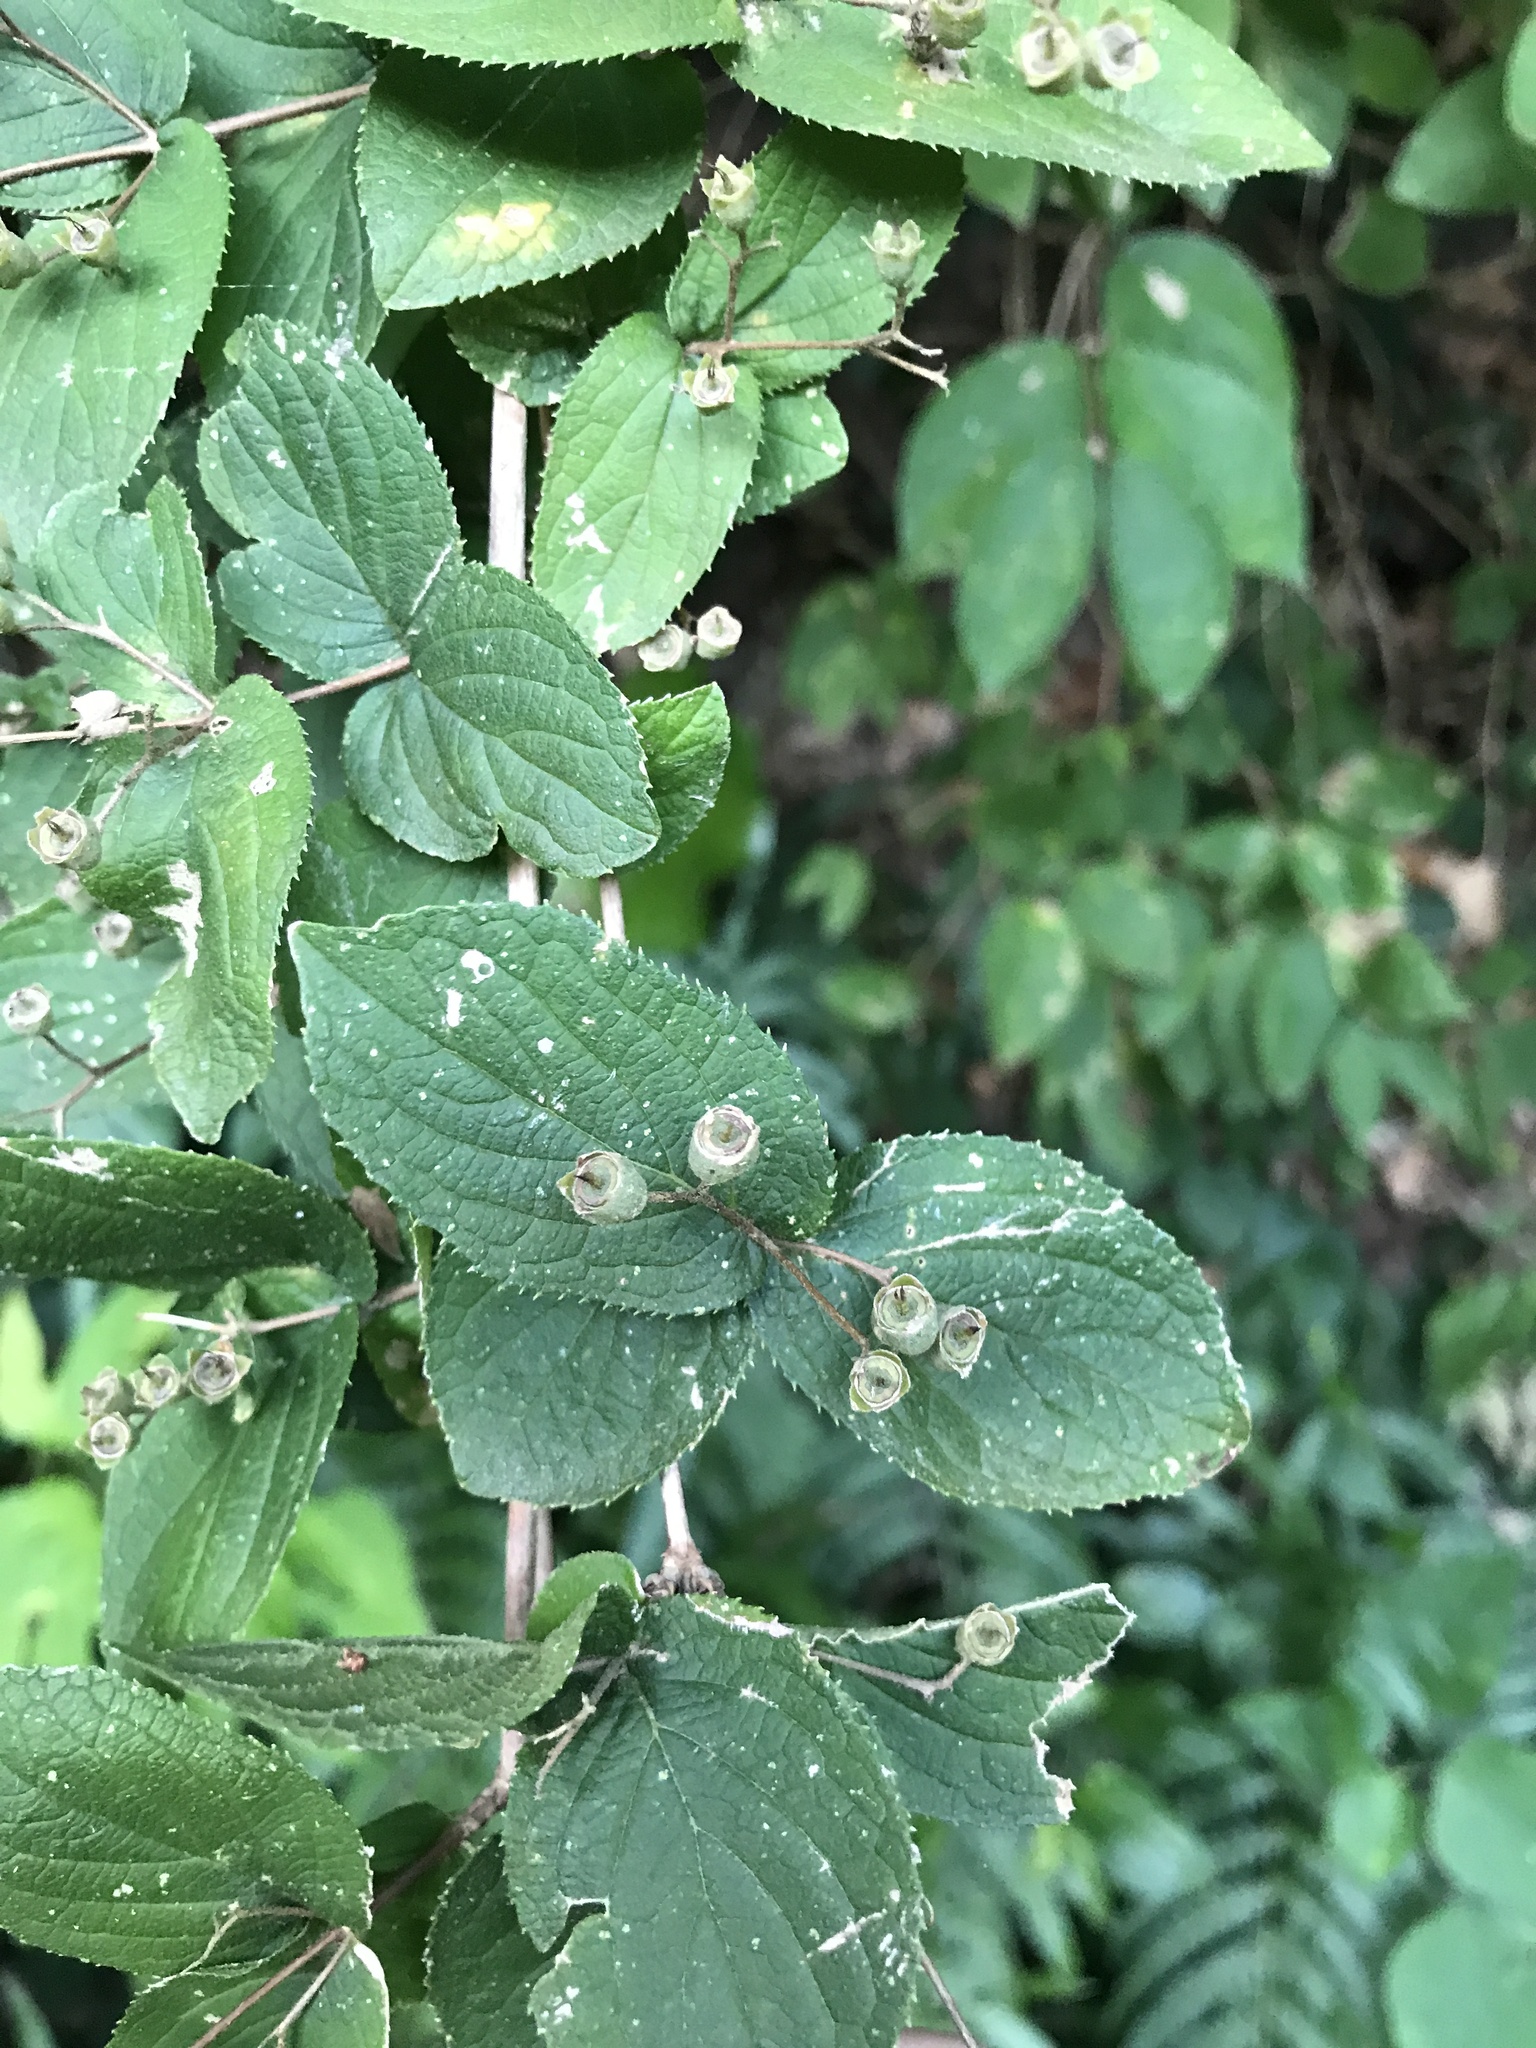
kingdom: Plantae
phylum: Tracheophyta
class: Magnoliopsida
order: Cornales
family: Hydrangeaceae
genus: Deutzia
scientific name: Deutzia scabra
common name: Deutzia
